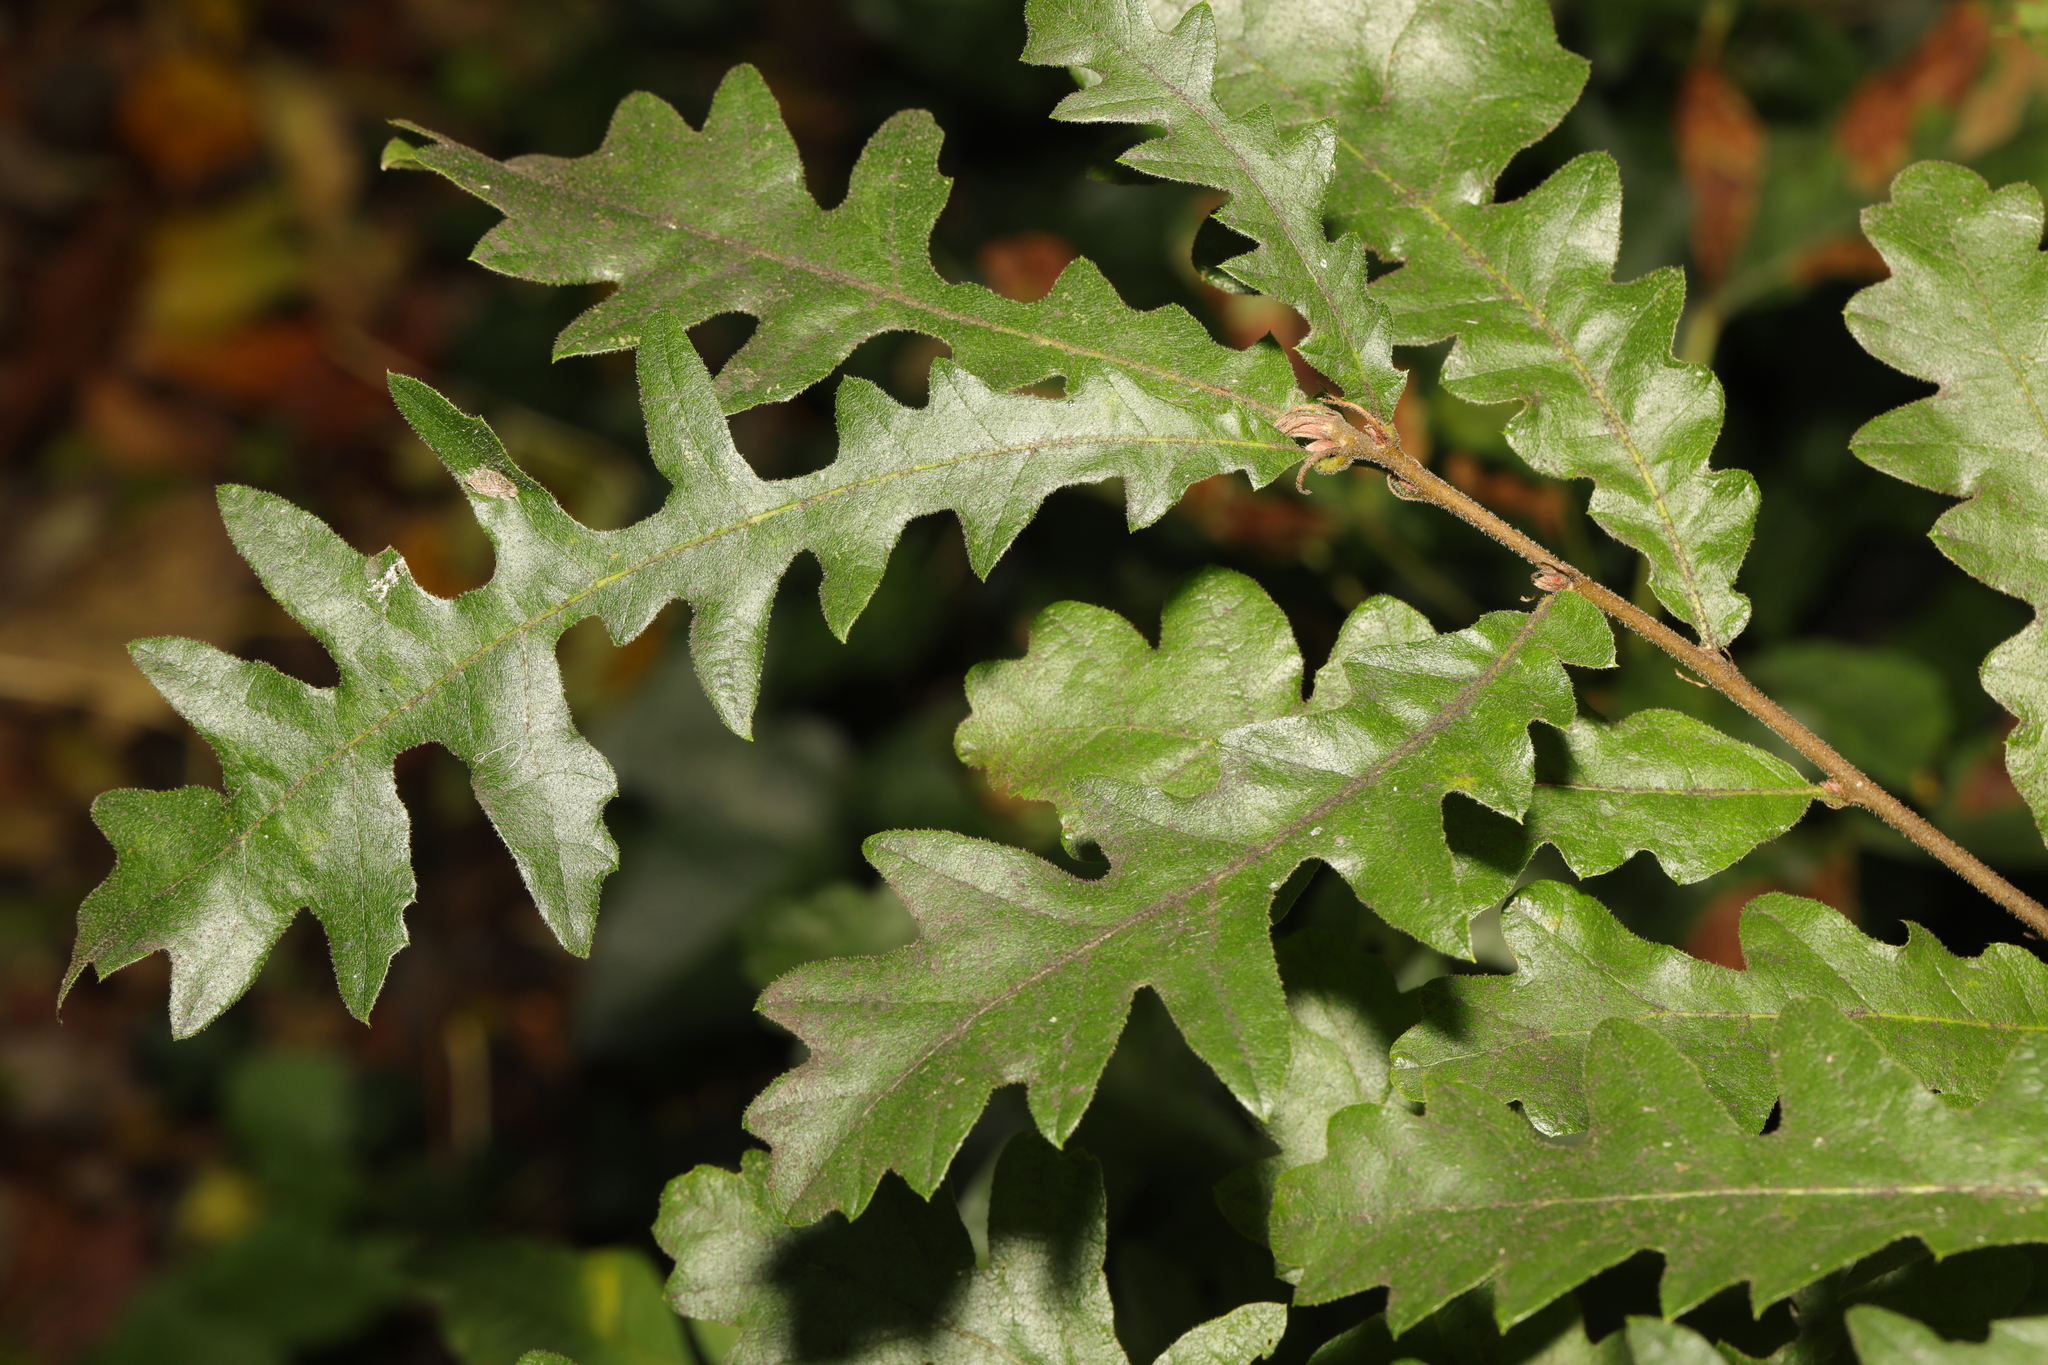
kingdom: Plantae
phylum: Tracheophyta
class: Magnoliopsida
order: Fagales
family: Fagaceae
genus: Quercus
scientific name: Quercus cerris
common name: Turkey oak
